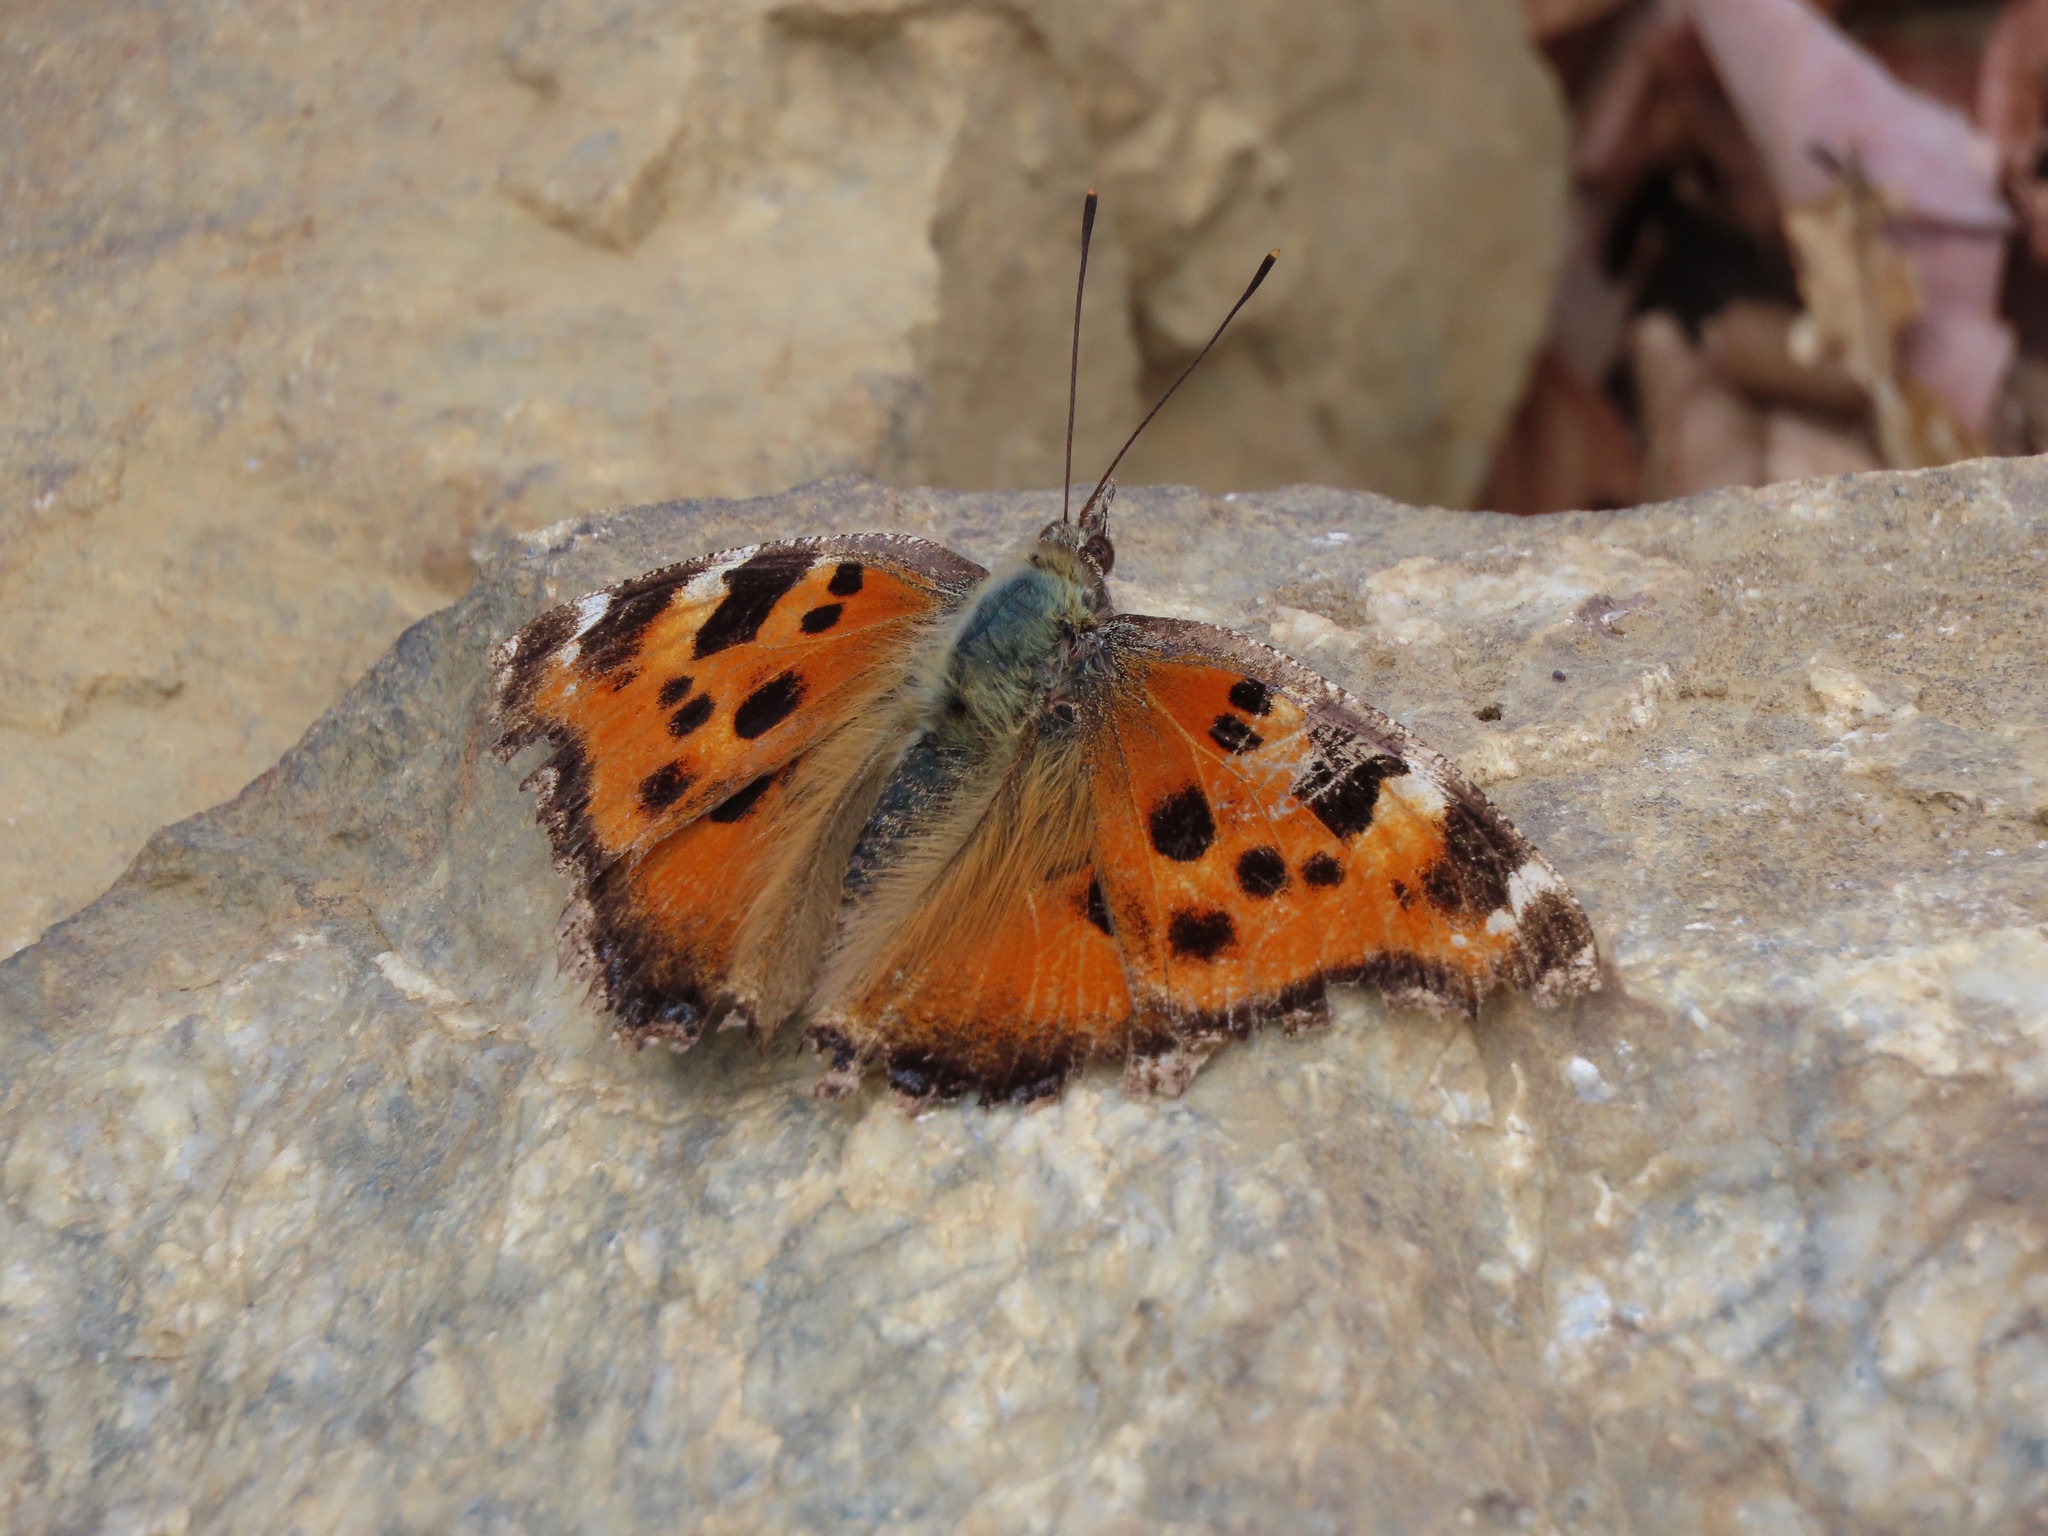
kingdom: Animalia
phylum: Arthropoda
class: Insecta
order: Lepidoptera
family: Nymphalidae
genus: Nymphalis
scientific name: Nymphalis xanthomelas
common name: Scarce tortoiseshell
